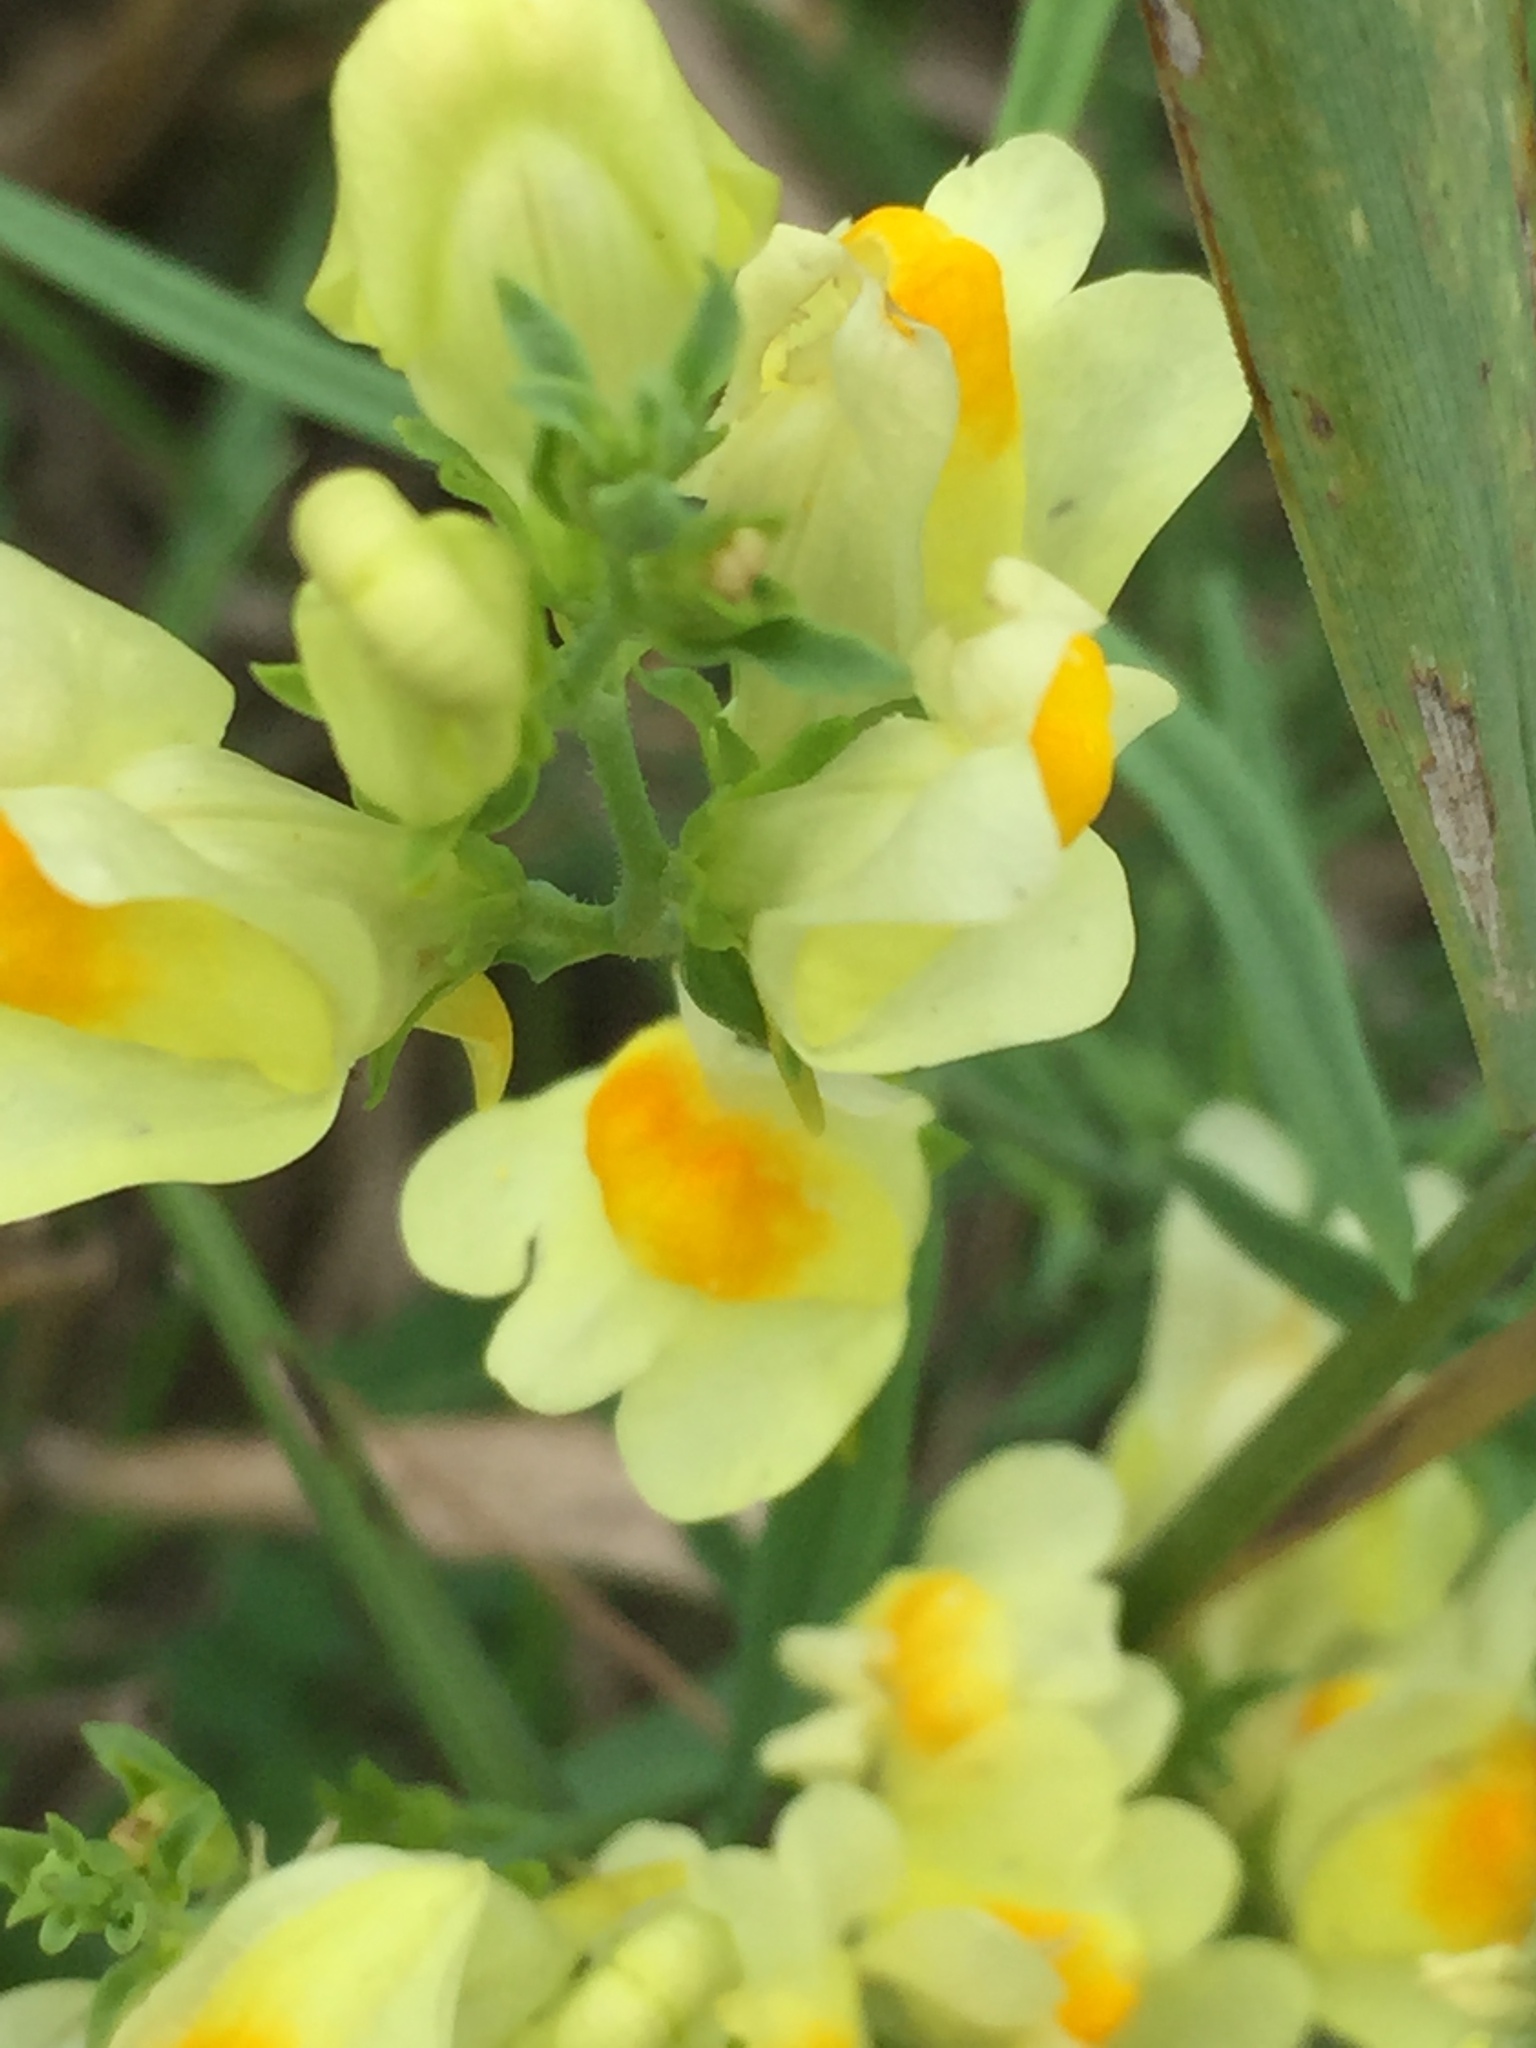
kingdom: Plantae
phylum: Tracheophyta
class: Magnoliopsida
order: Lamiales
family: Plantaginaceae
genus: Linaria
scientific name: Linaria vulgaris
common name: Butter and eggs
